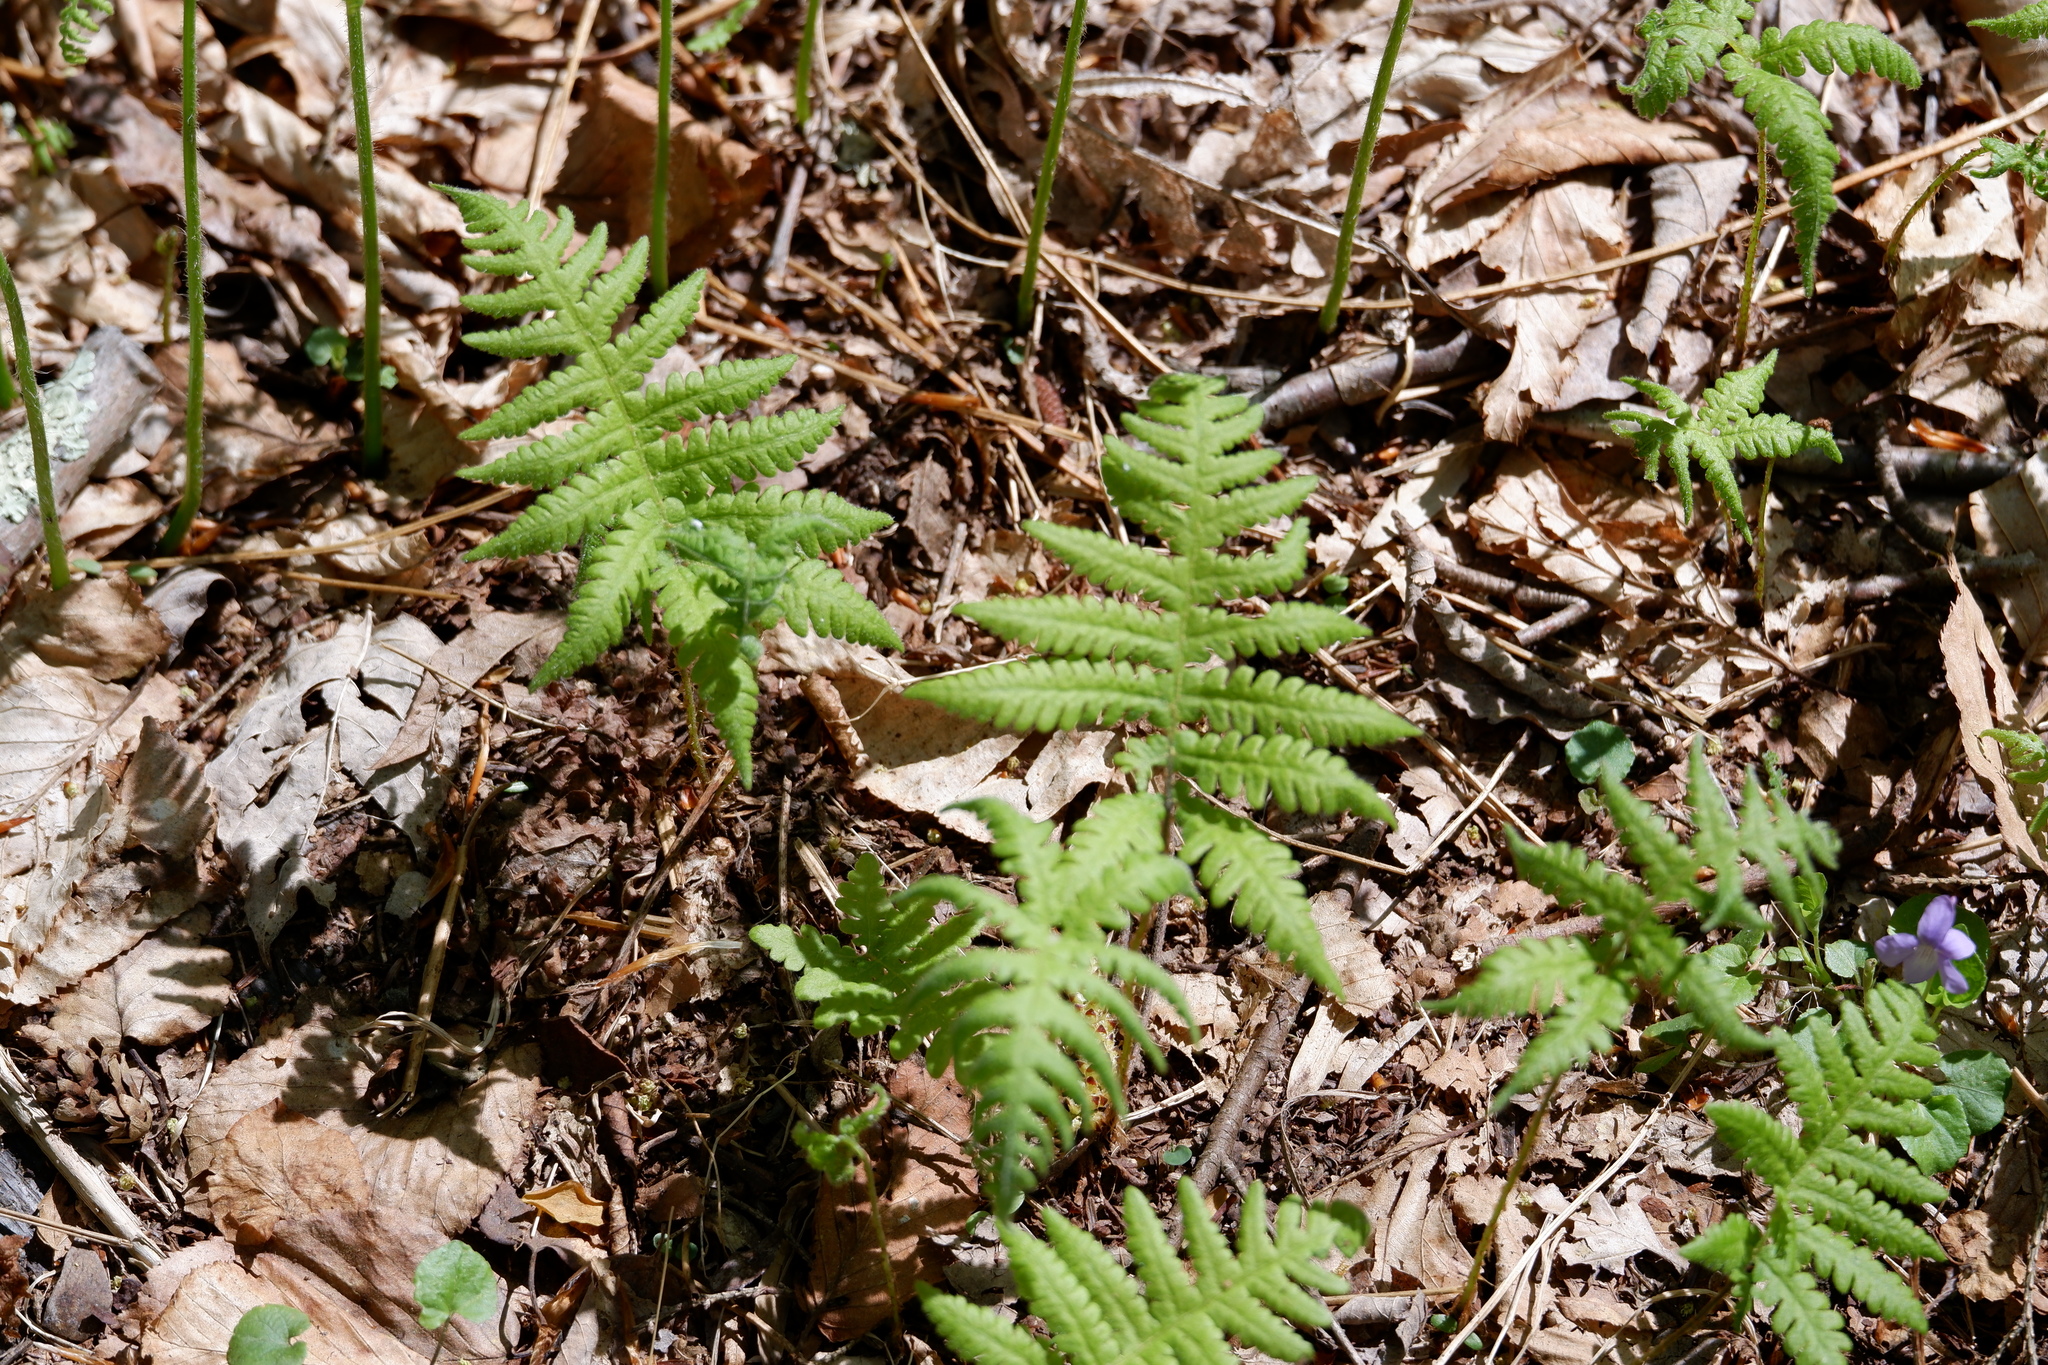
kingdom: Plantae
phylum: Tracheophyta
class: Polypodiopsida
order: Polypodiales
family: Thelypteridaceae
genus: Phegopteris
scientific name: Phegopteris connectilis
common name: Beech fern
